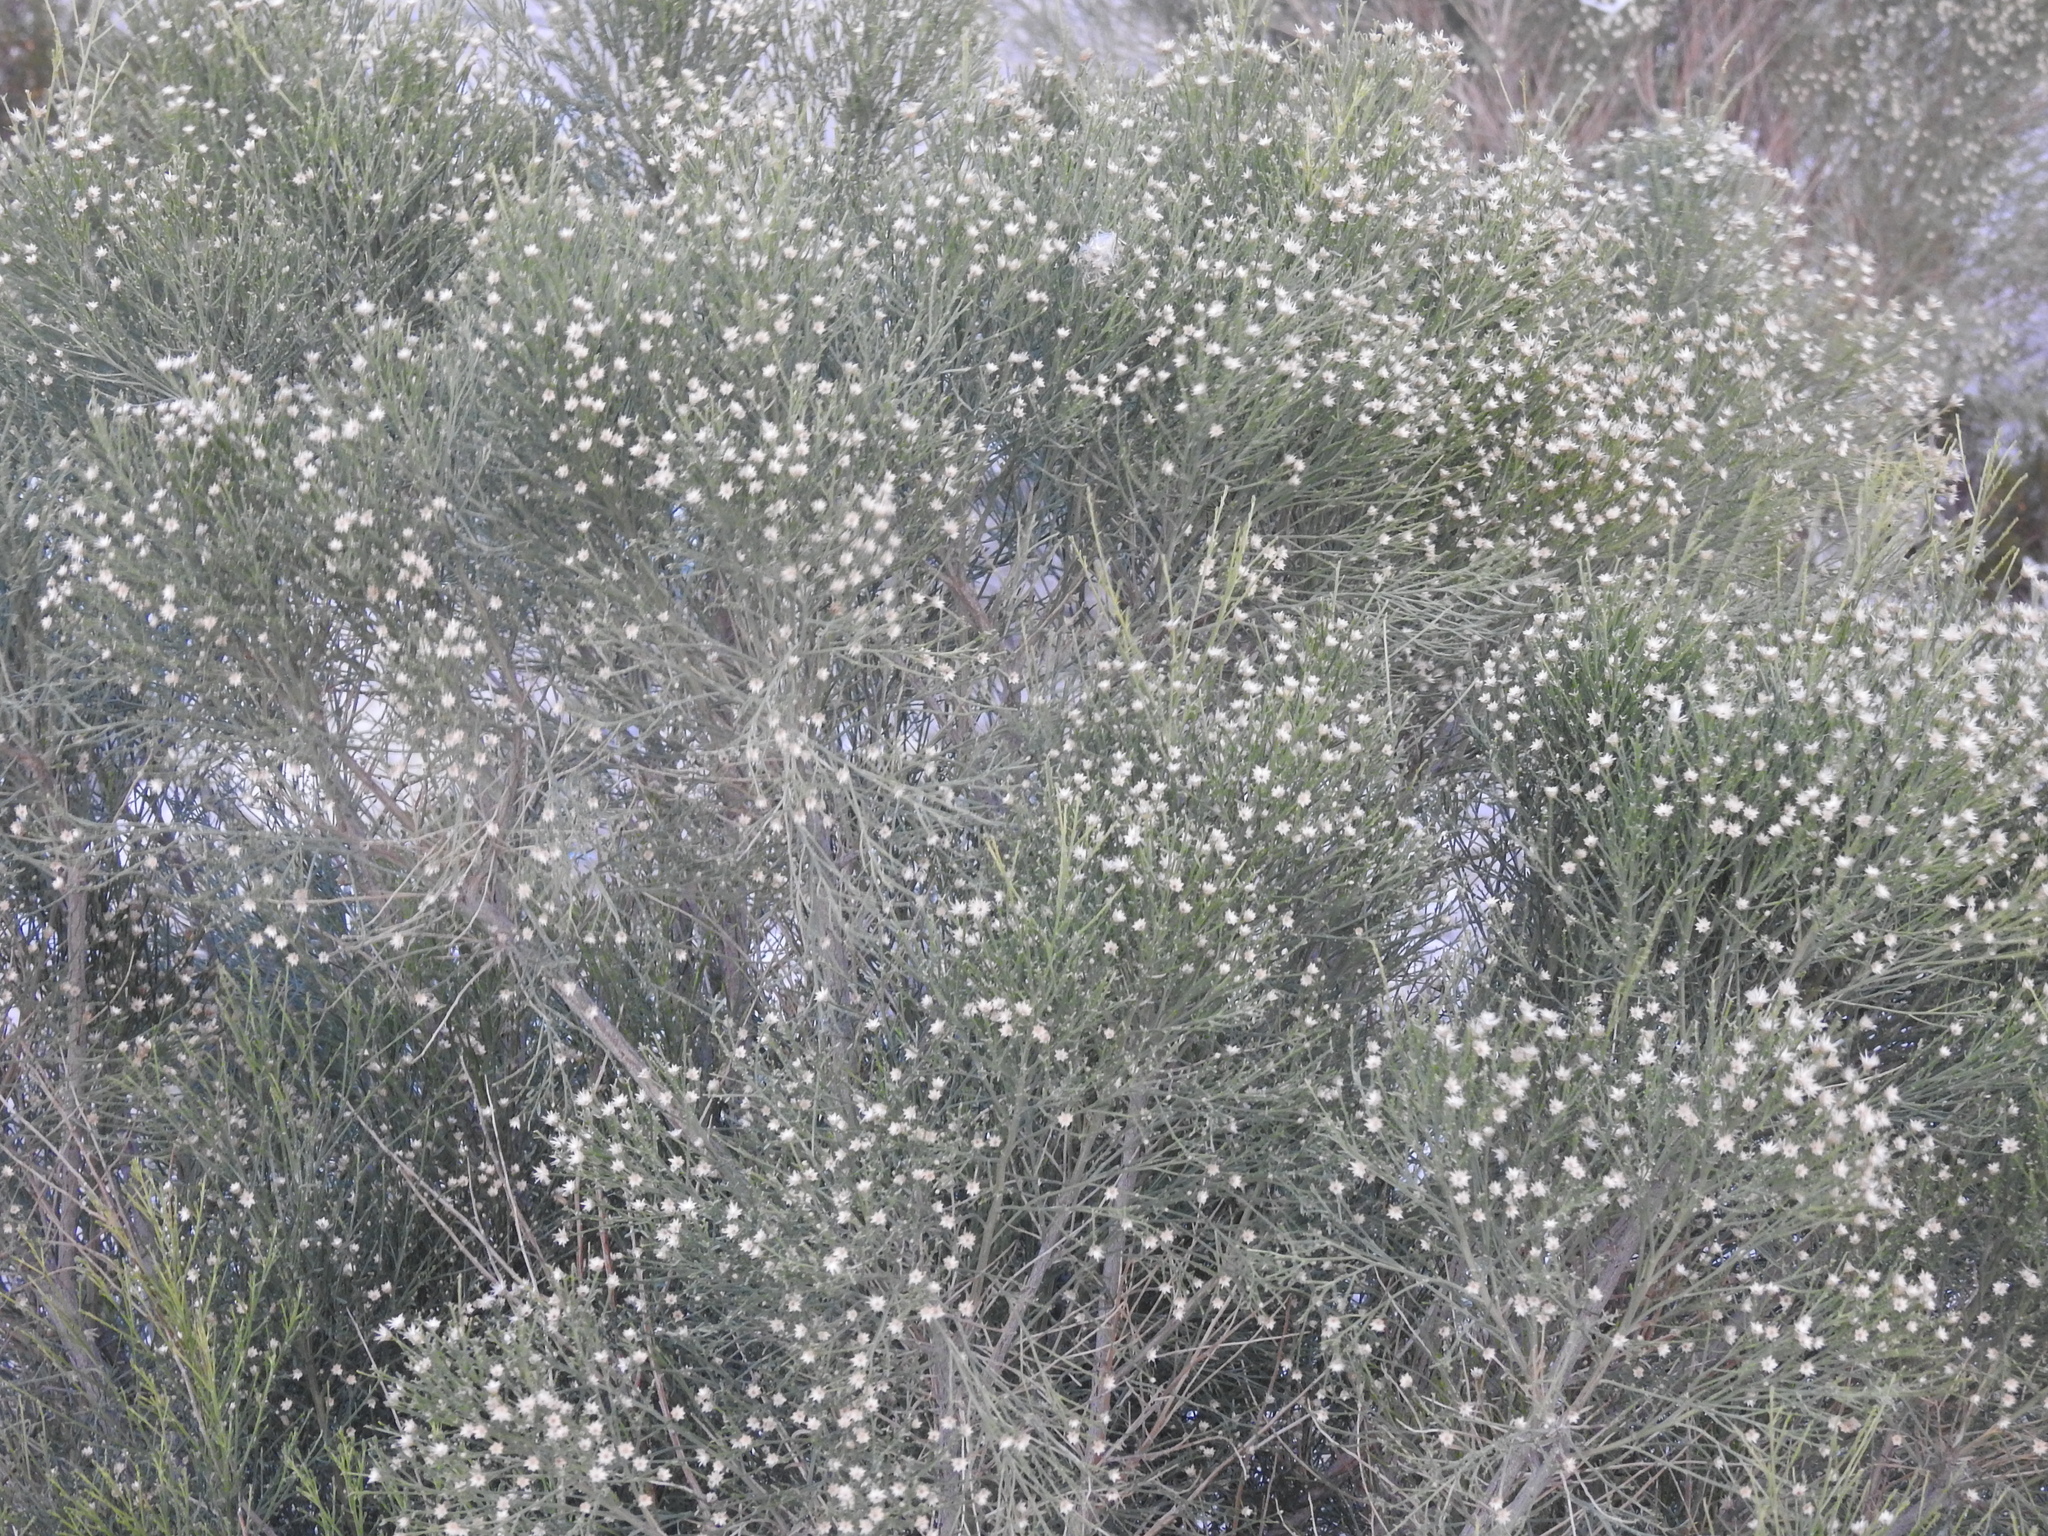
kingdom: Plantae
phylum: Tracheophyta
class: Magnoliopsida
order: Asterales
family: Asteraceae
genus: Baccharis
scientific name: Baccharis sarothroides
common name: Desert-broom
